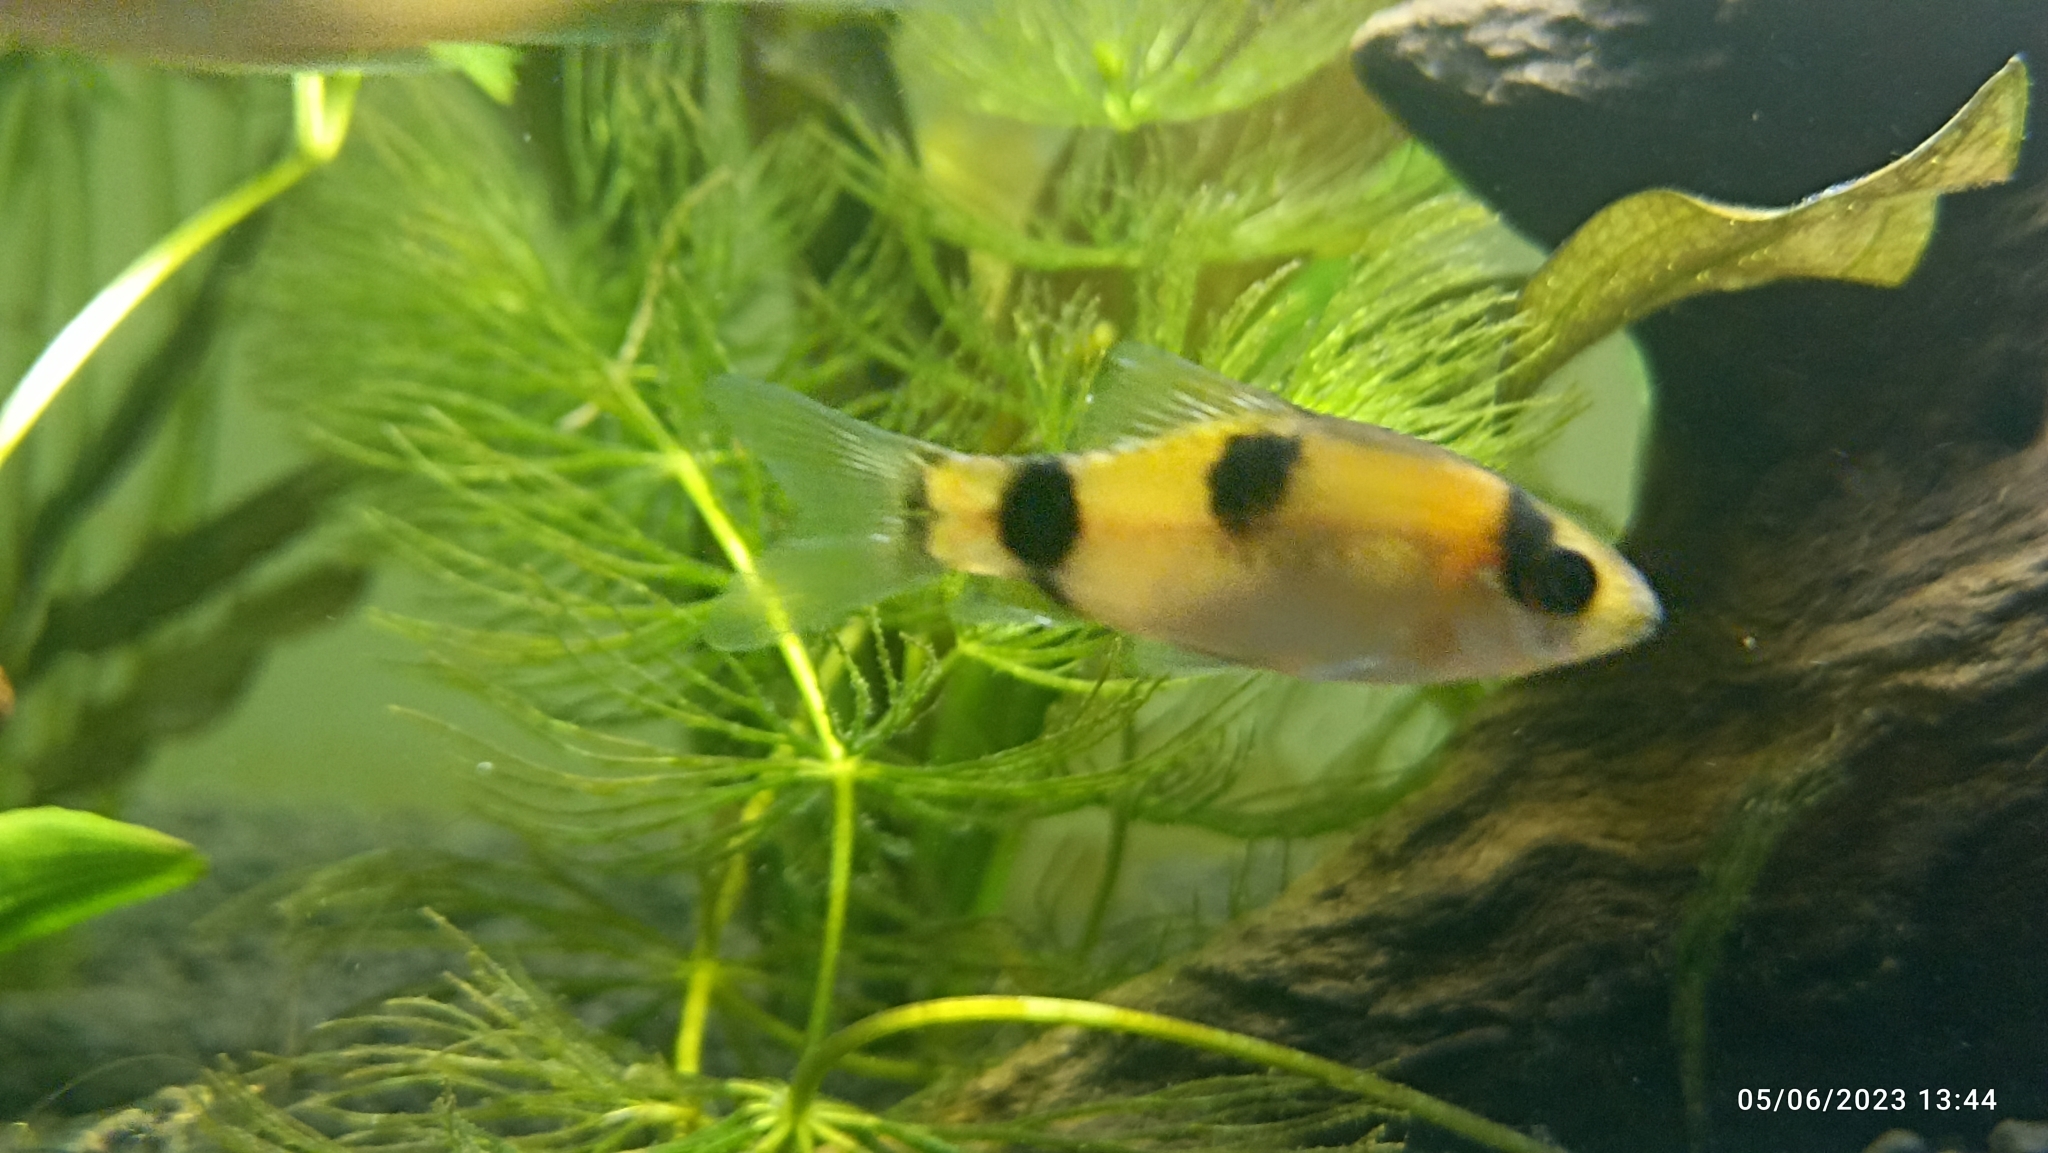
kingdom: Animalia
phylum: Chordata
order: Cypriniformes
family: Cyprinidae
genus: Haludaria
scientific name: Haludaria fasciata
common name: Melon barb
